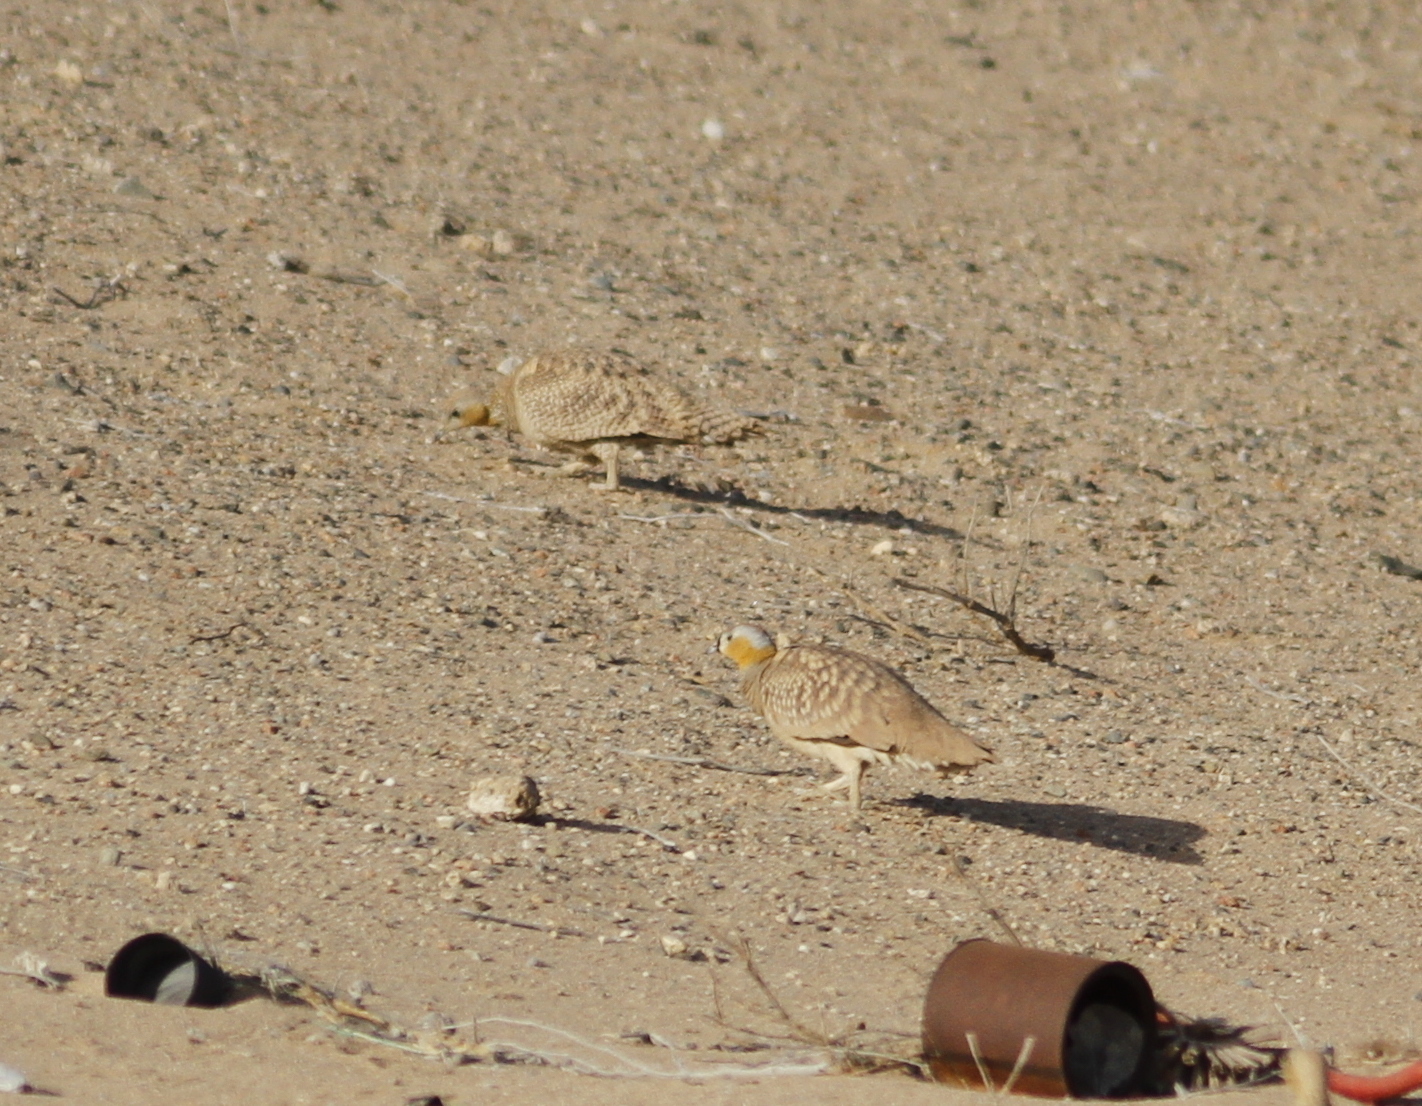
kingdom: Animalia
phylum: Chordata
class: Aves
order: Pteroclidiformes
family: Pteroclididae
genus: Pterocles
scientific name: Pterocles coronatus
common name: Crowned sandgrouse
